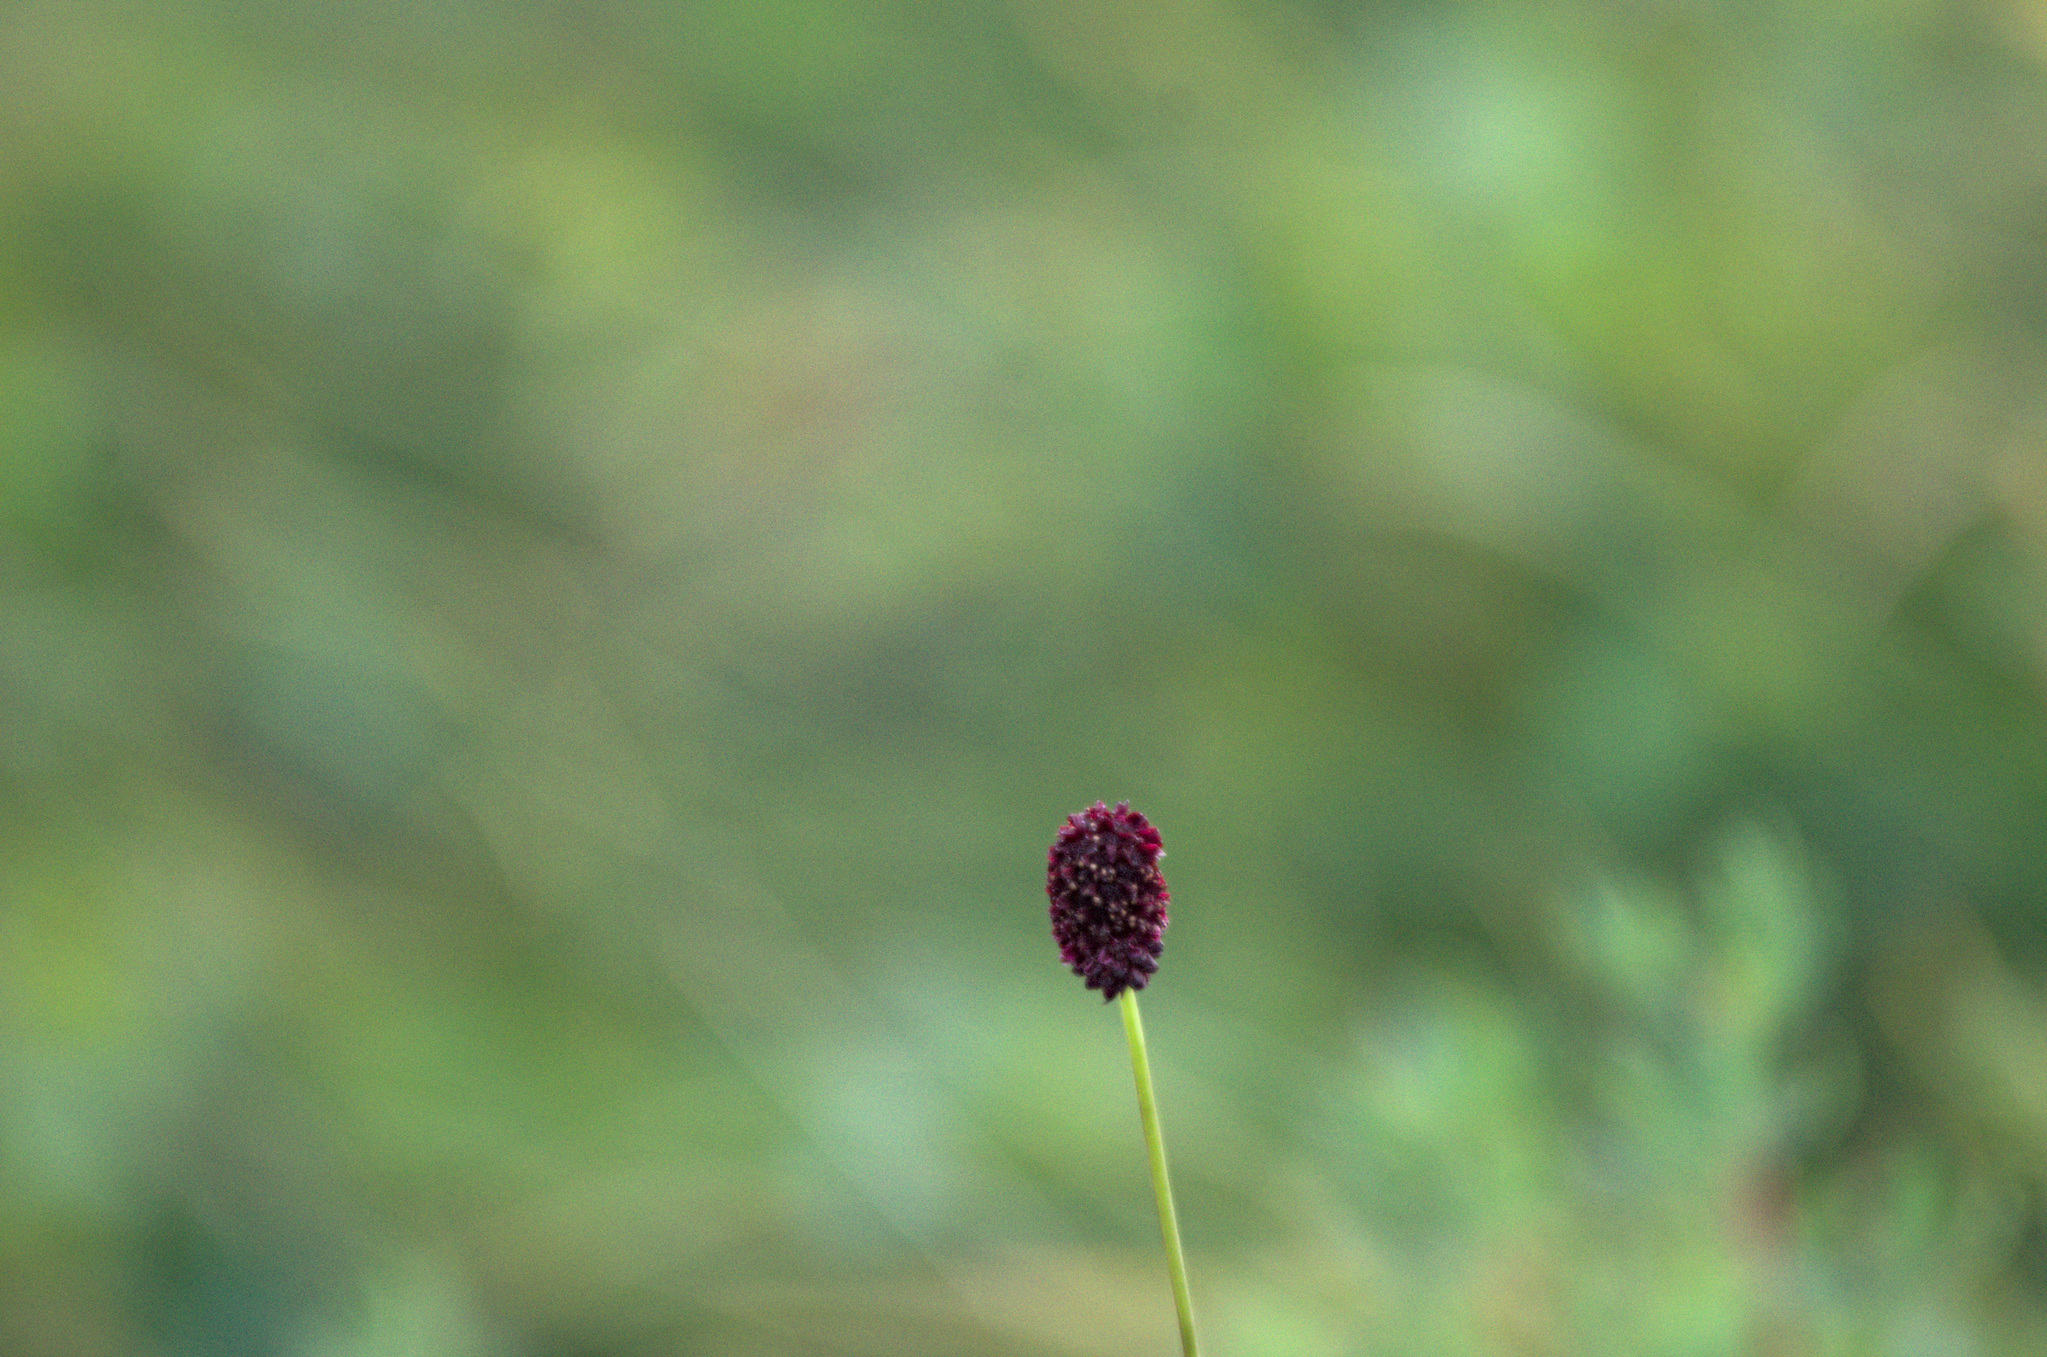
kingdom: Plantae
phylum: Tracheophyta
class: Magnoliopsida
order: Rosales
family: Rosaceae
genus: Sanguisorba
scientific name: Sanguisorba officinalis
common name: Great burnet
